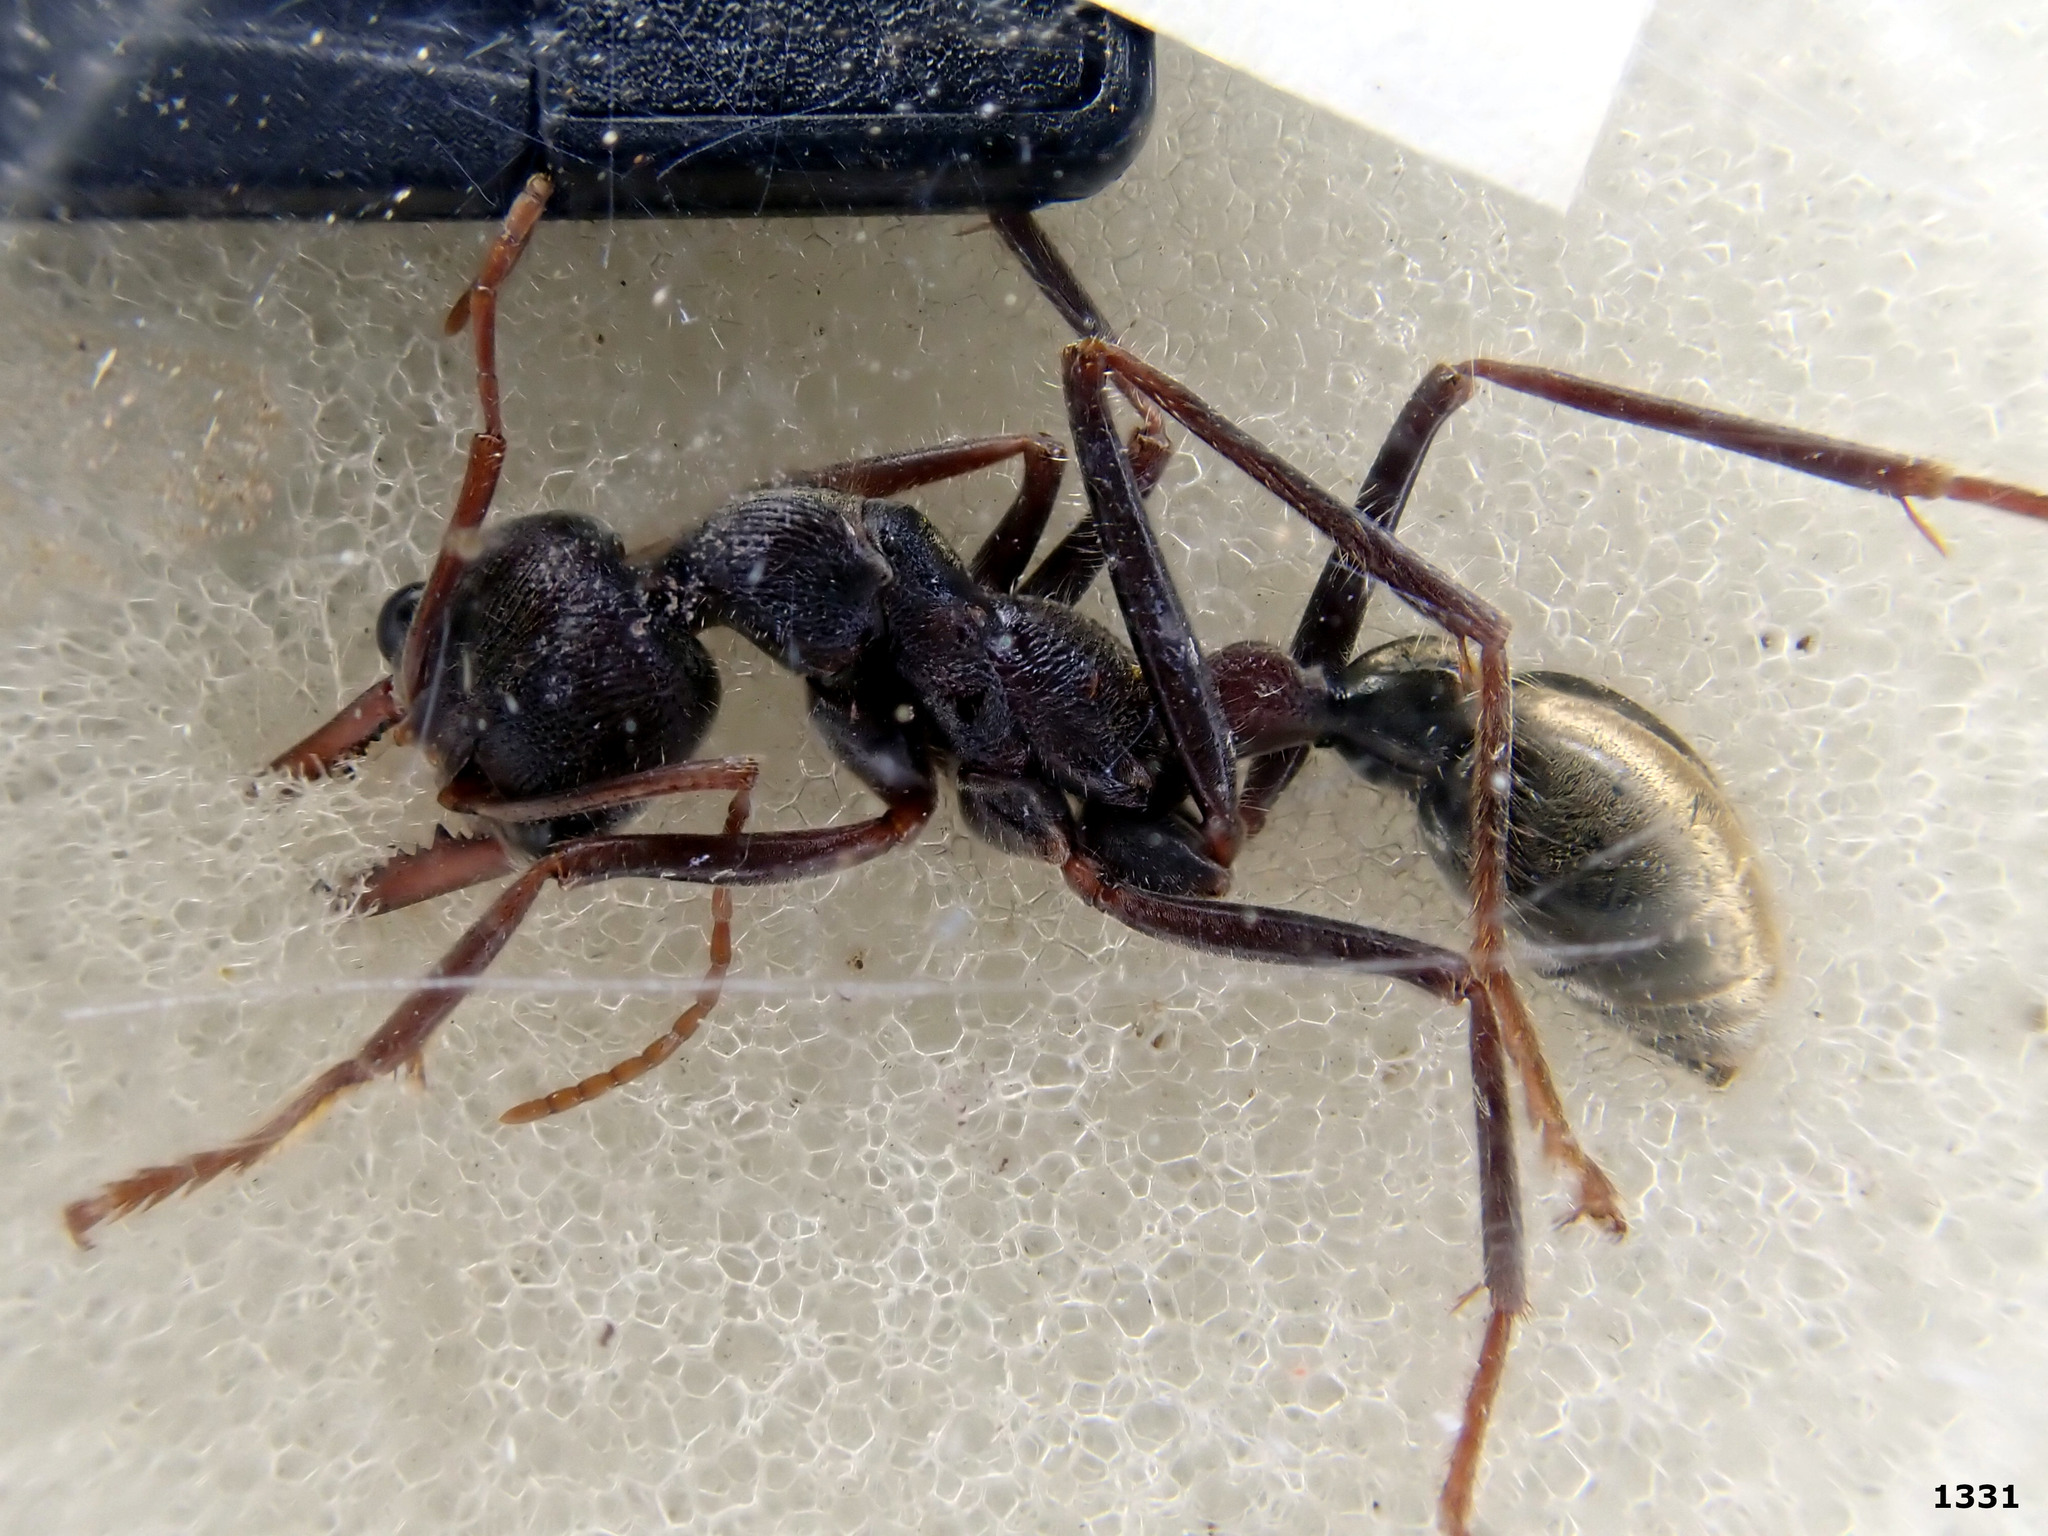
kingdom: Animalia
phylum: Arthropoda
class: Insecta
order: Hymenoptera
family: Formicidae
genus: Myrmecia
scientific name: Myrmecia borealis
